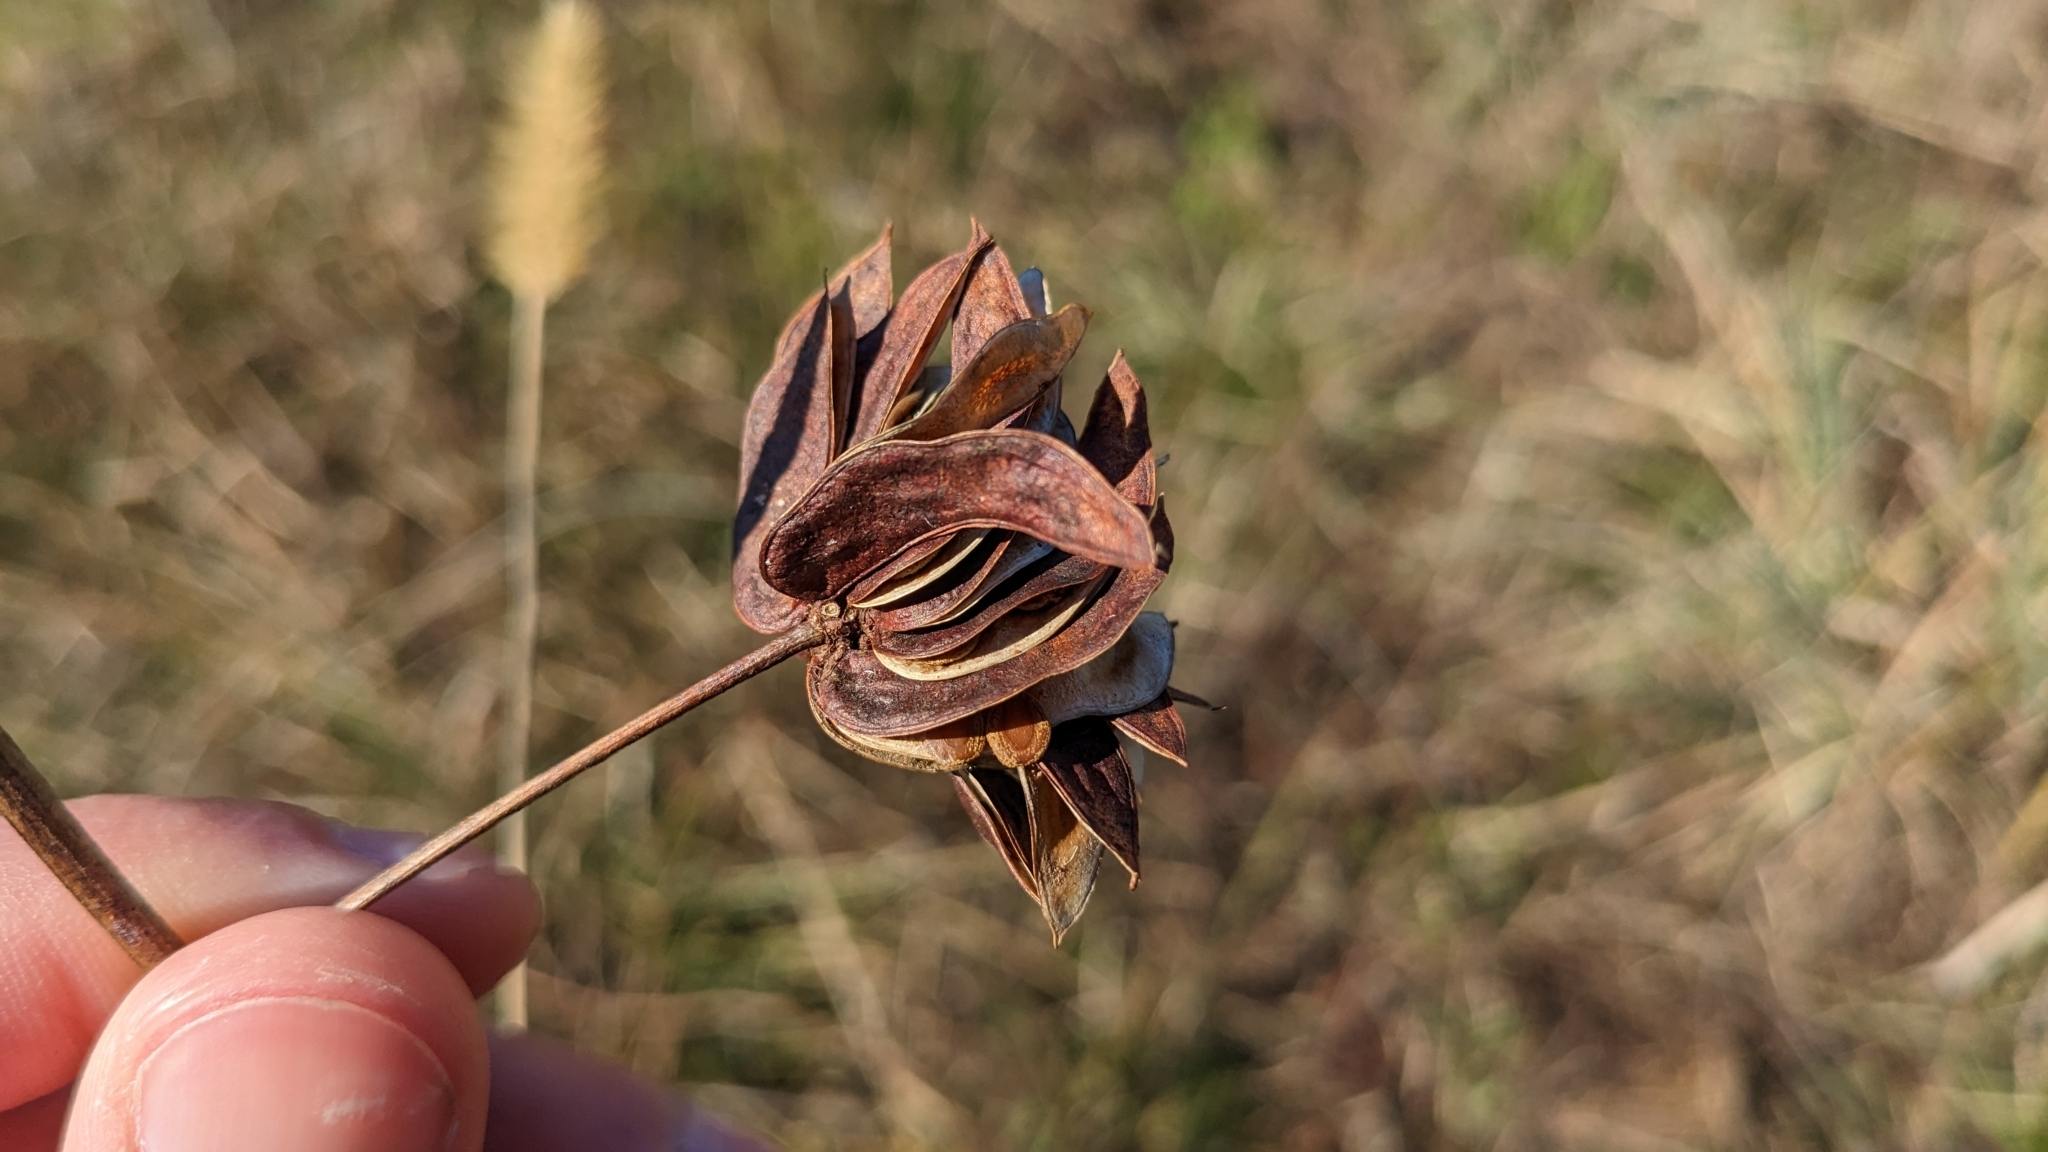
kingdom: Plantae
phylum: Tracheophyta
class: Magnoliopsida
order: Fabales
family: Fabaceae
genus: Desmanthus
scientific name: Desmanthus illinoensis
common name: Illinois bundle-flower
